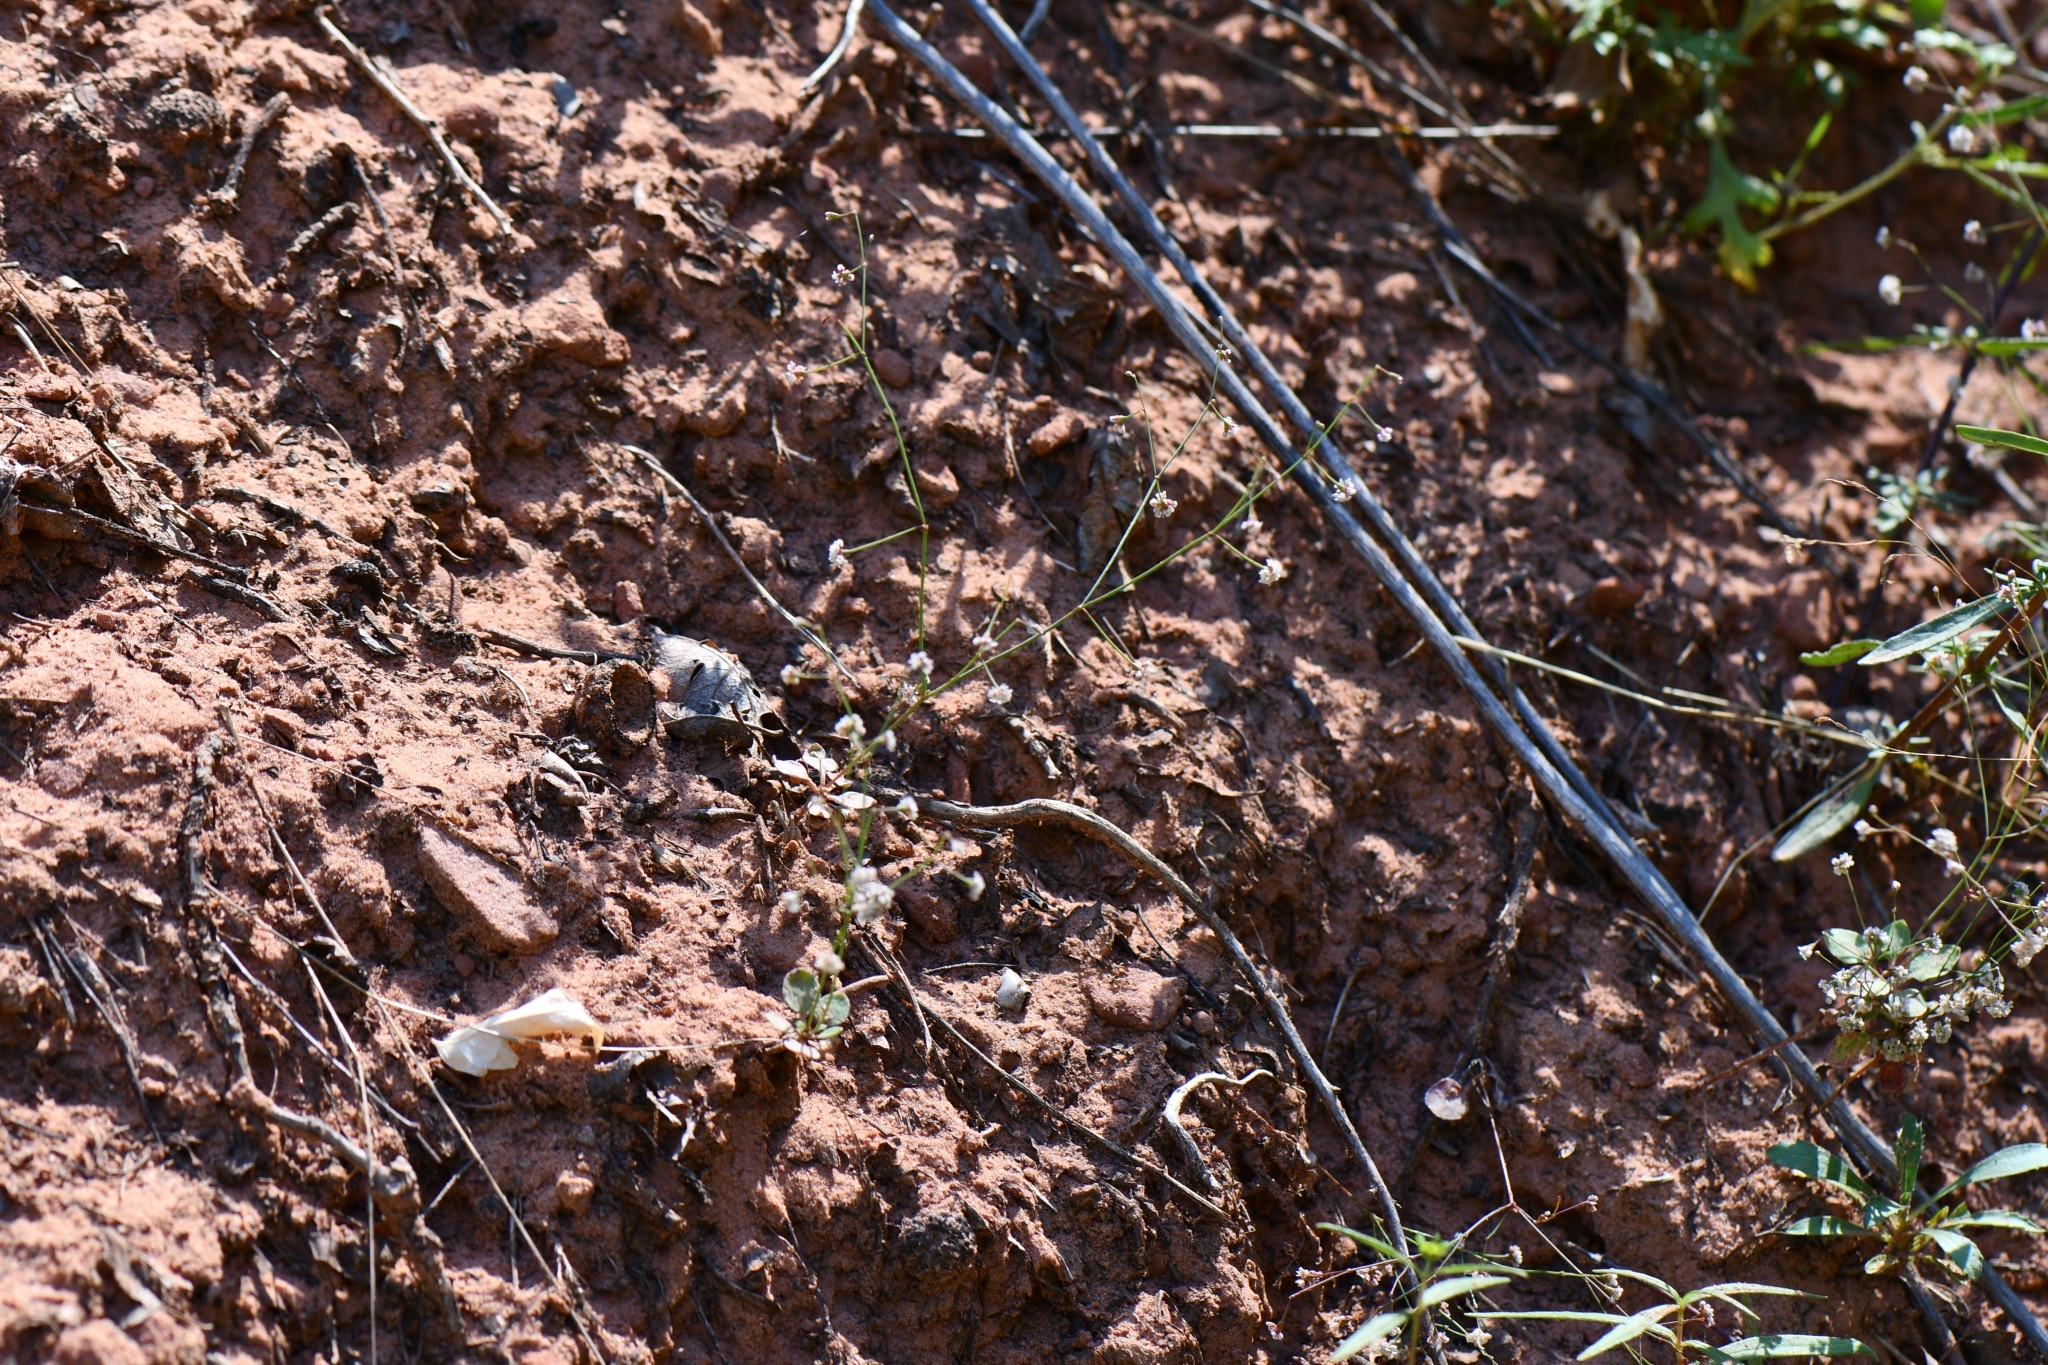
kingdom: Plantae
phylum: Tracheophyta
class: Magnoliopsida
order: Caryophyllales
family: Polygonaceae
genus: Eriogonum
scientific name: Eriogonum cernuum
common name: Nodding wild buckwheat
